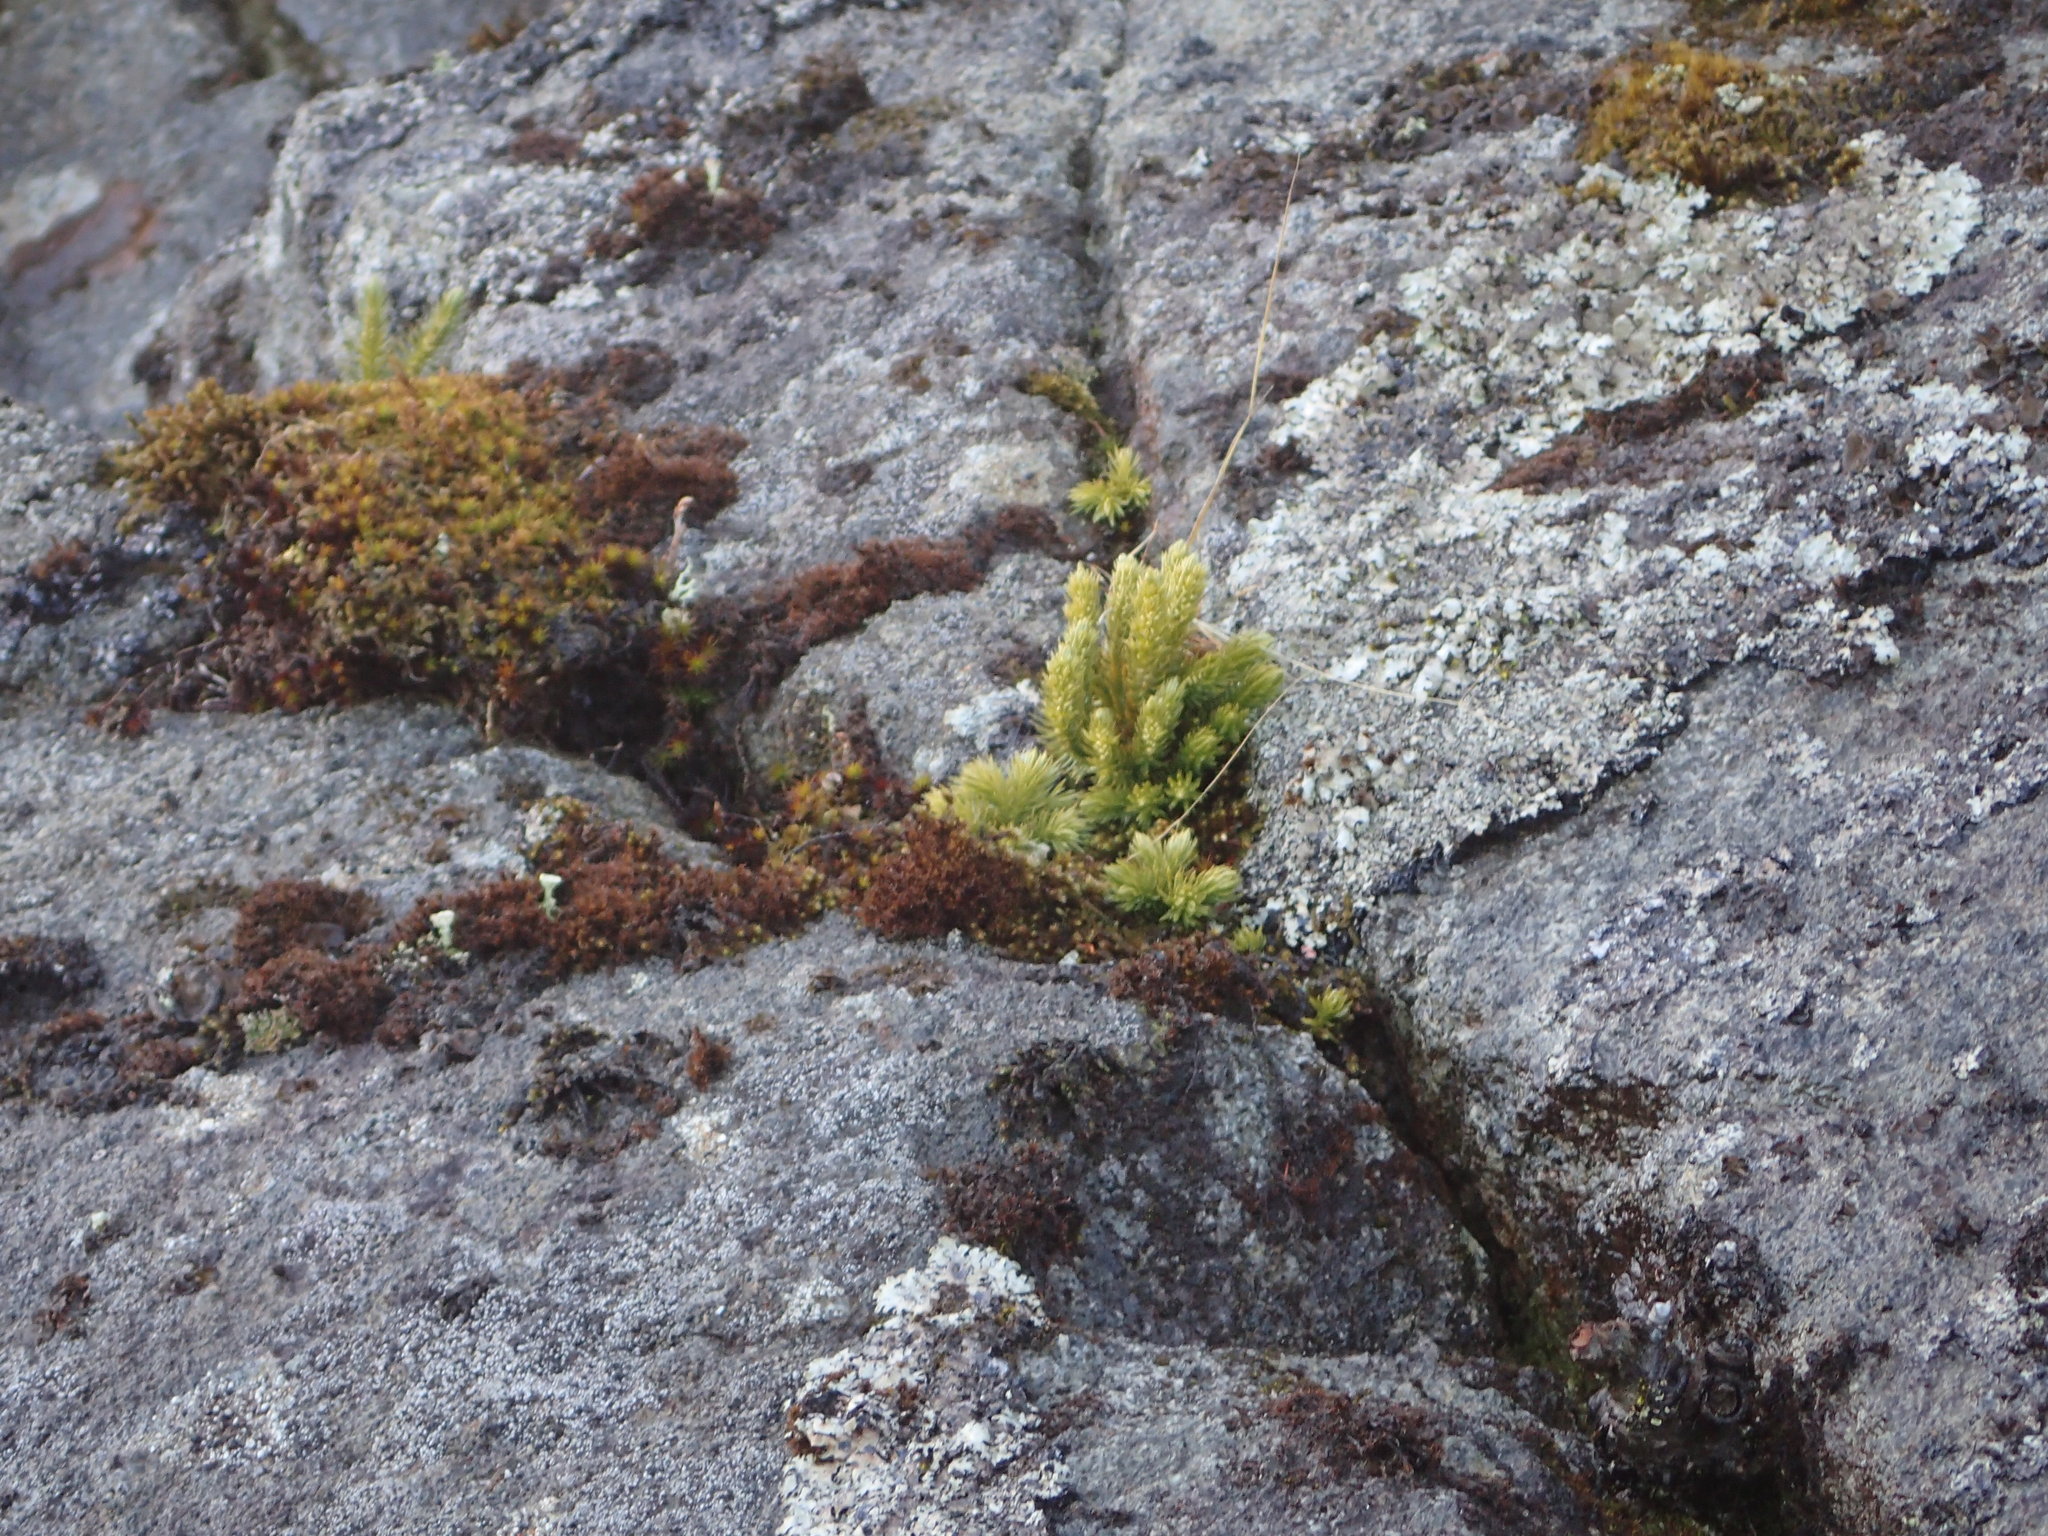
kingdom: Plantae
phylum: Tracheophyta
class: Lycopodiopsida
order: Lycopodiales
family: Lycopodiaceae
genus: Huperzia
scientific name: Huperzia selago
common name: Northern firmoss
